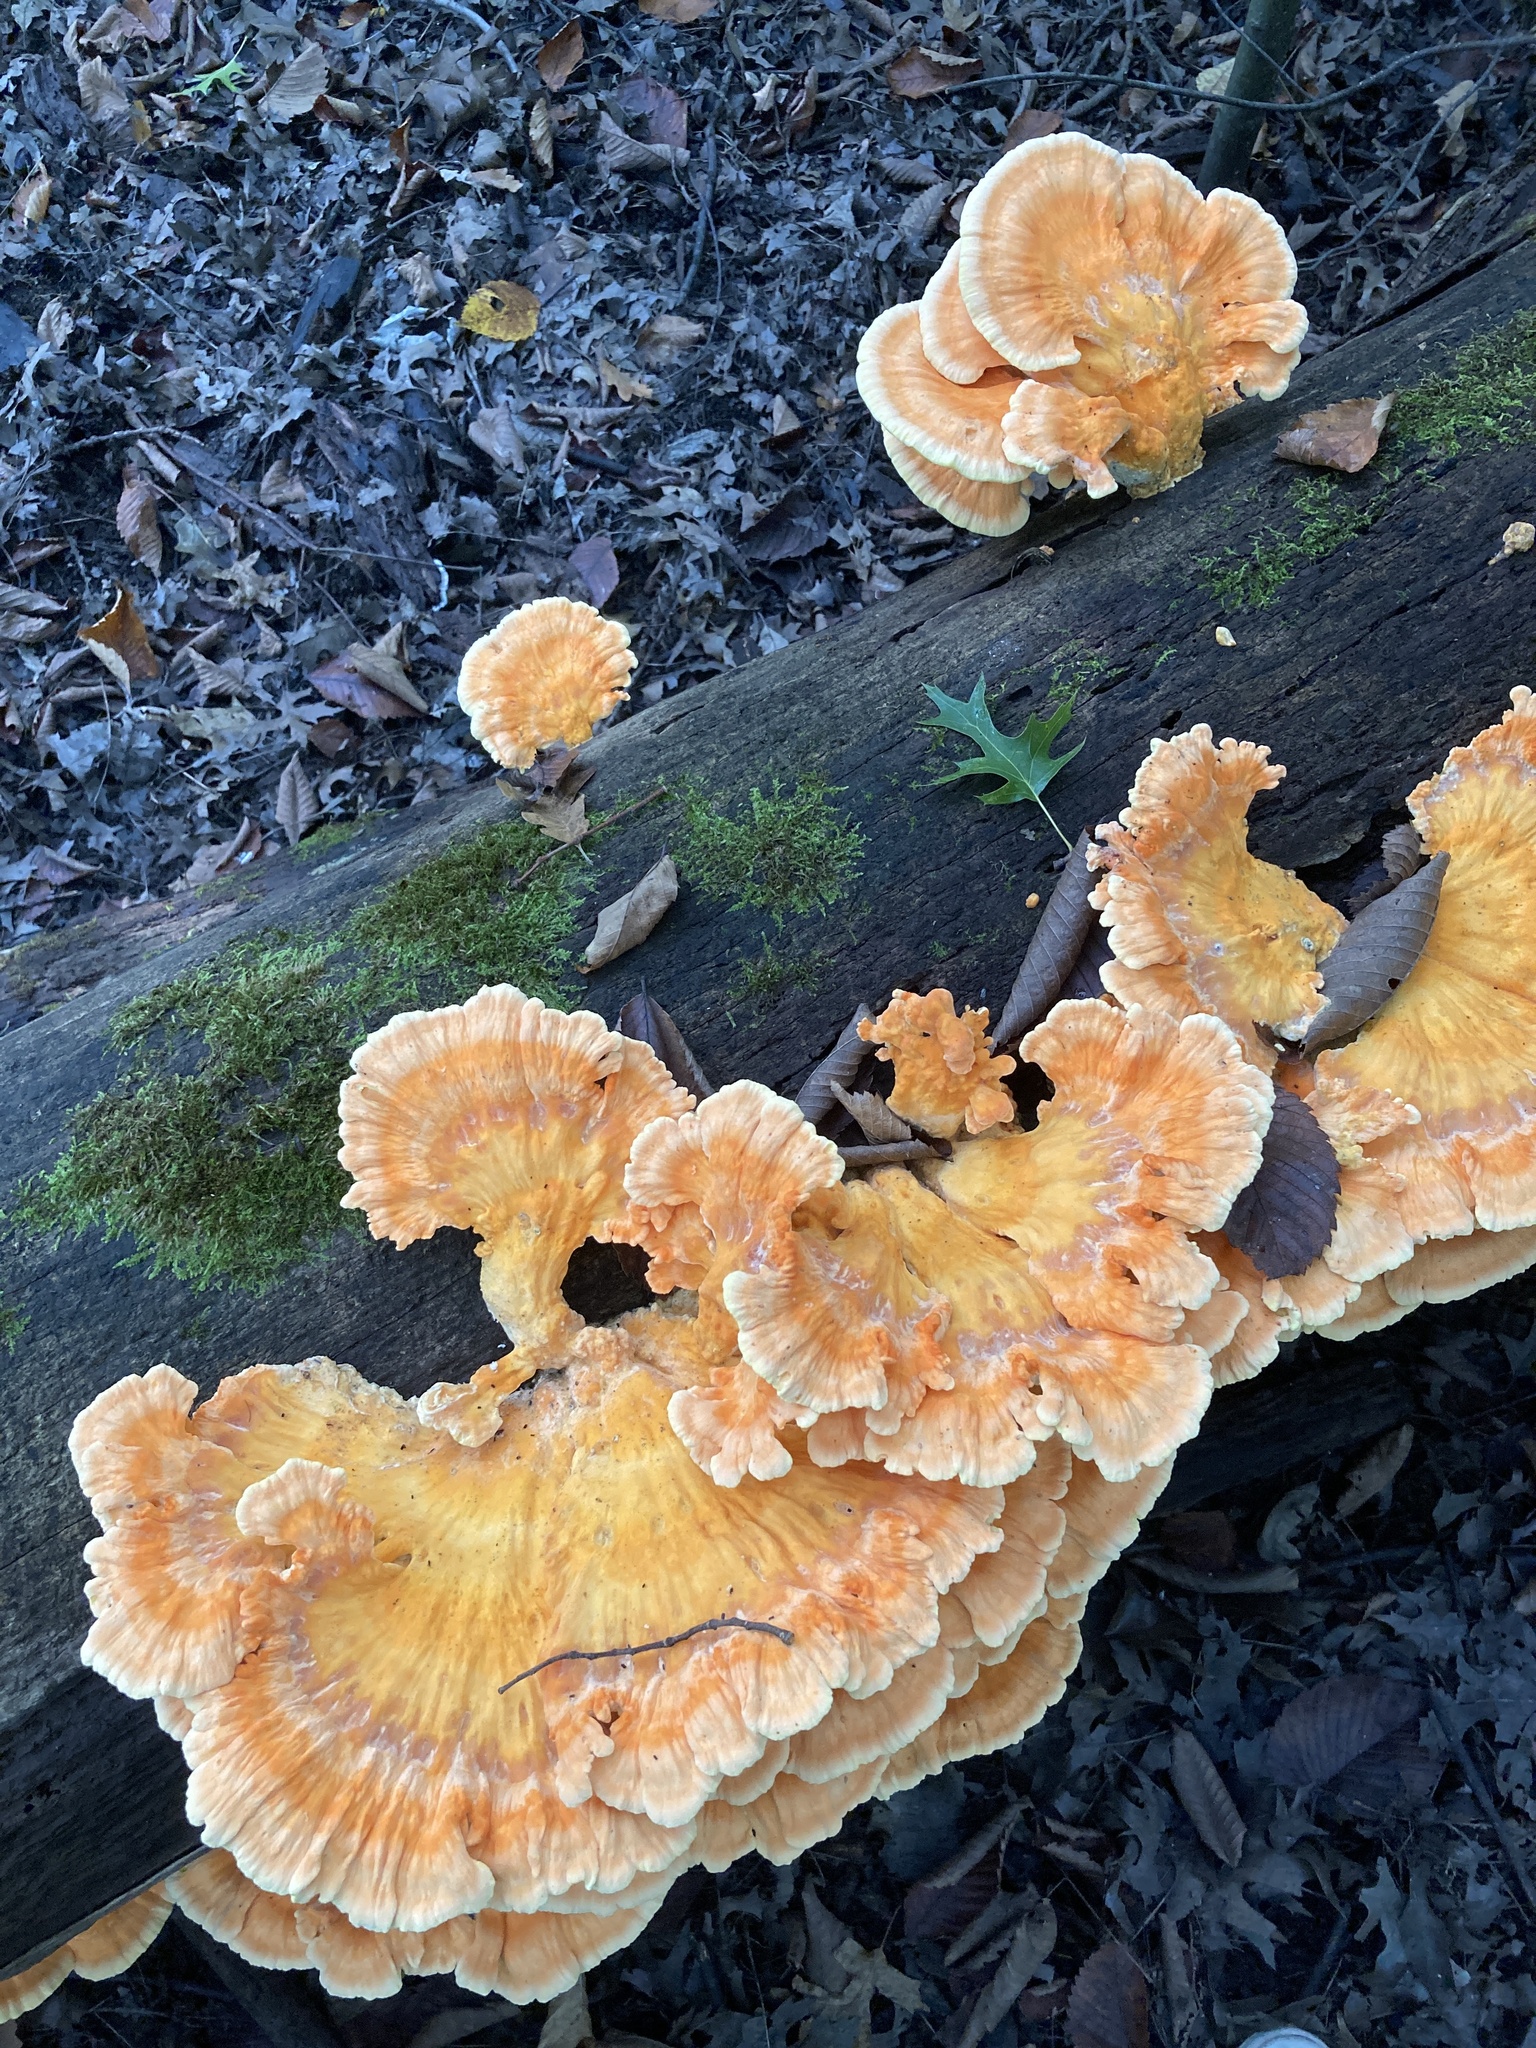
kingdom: Fungi
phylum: Basidiomycota
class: Agaricomycetes
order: Polyporales
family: Laetiporaceae
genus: Laetiporus
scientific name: Laetiporus sulphureus
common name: Chicken of the woods
